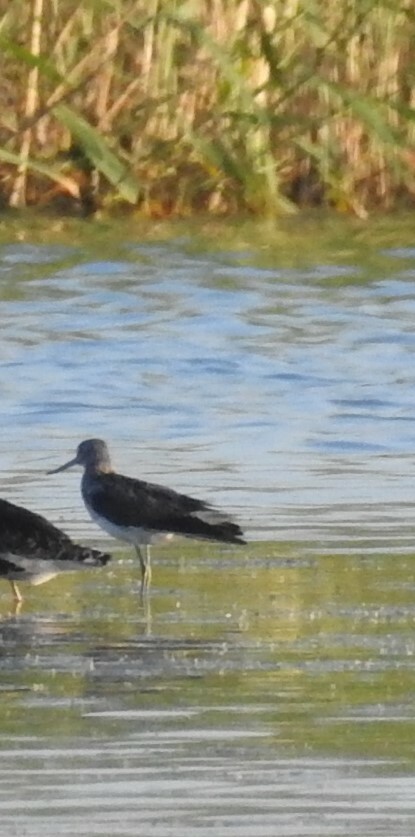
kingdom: Animalia
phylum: Chordata
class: Aves
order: Charadriiformes
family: Scolopacidae
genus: Tringa
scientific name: Tringa nebularia
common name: Common greenshank
